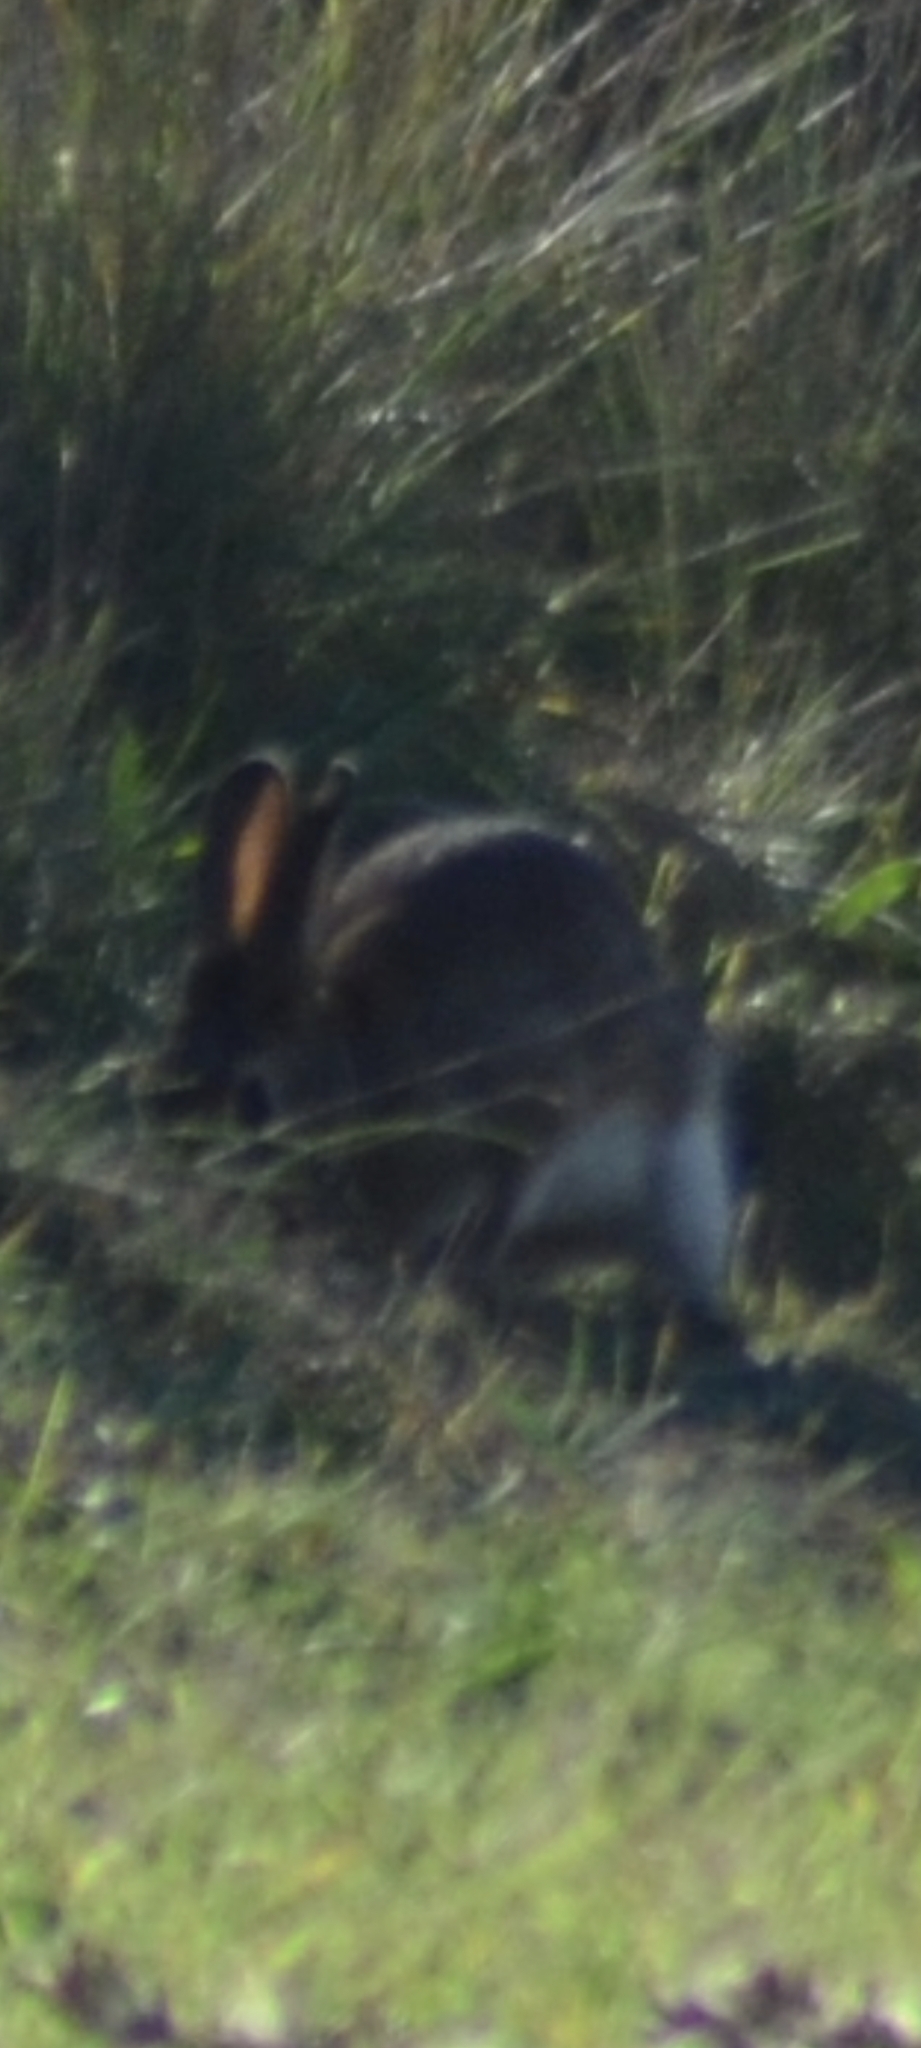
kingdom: Animalia
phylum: Chordata
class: Mammalia
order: Lagomorpha
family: Leporidae
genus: Oryctolagus
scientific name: Oryctolagus cuniculus
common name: European rabbit
